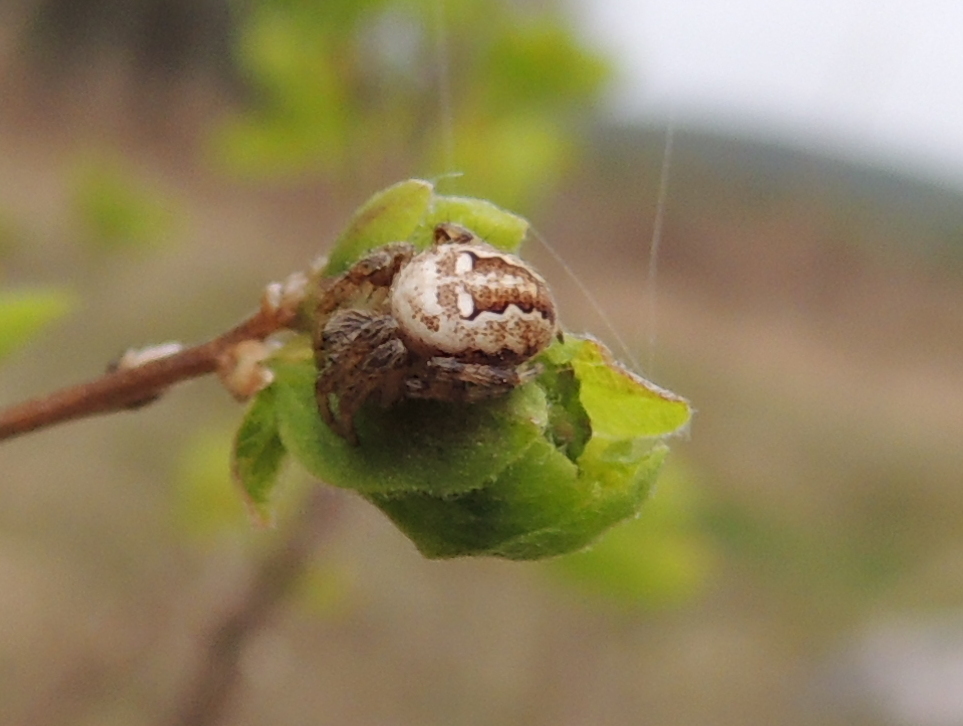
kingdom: Animalia
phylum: Arthropoda
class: Arachnida
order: Araneae
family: Araneidae
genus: Araneus
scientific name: Araneus quadratus
